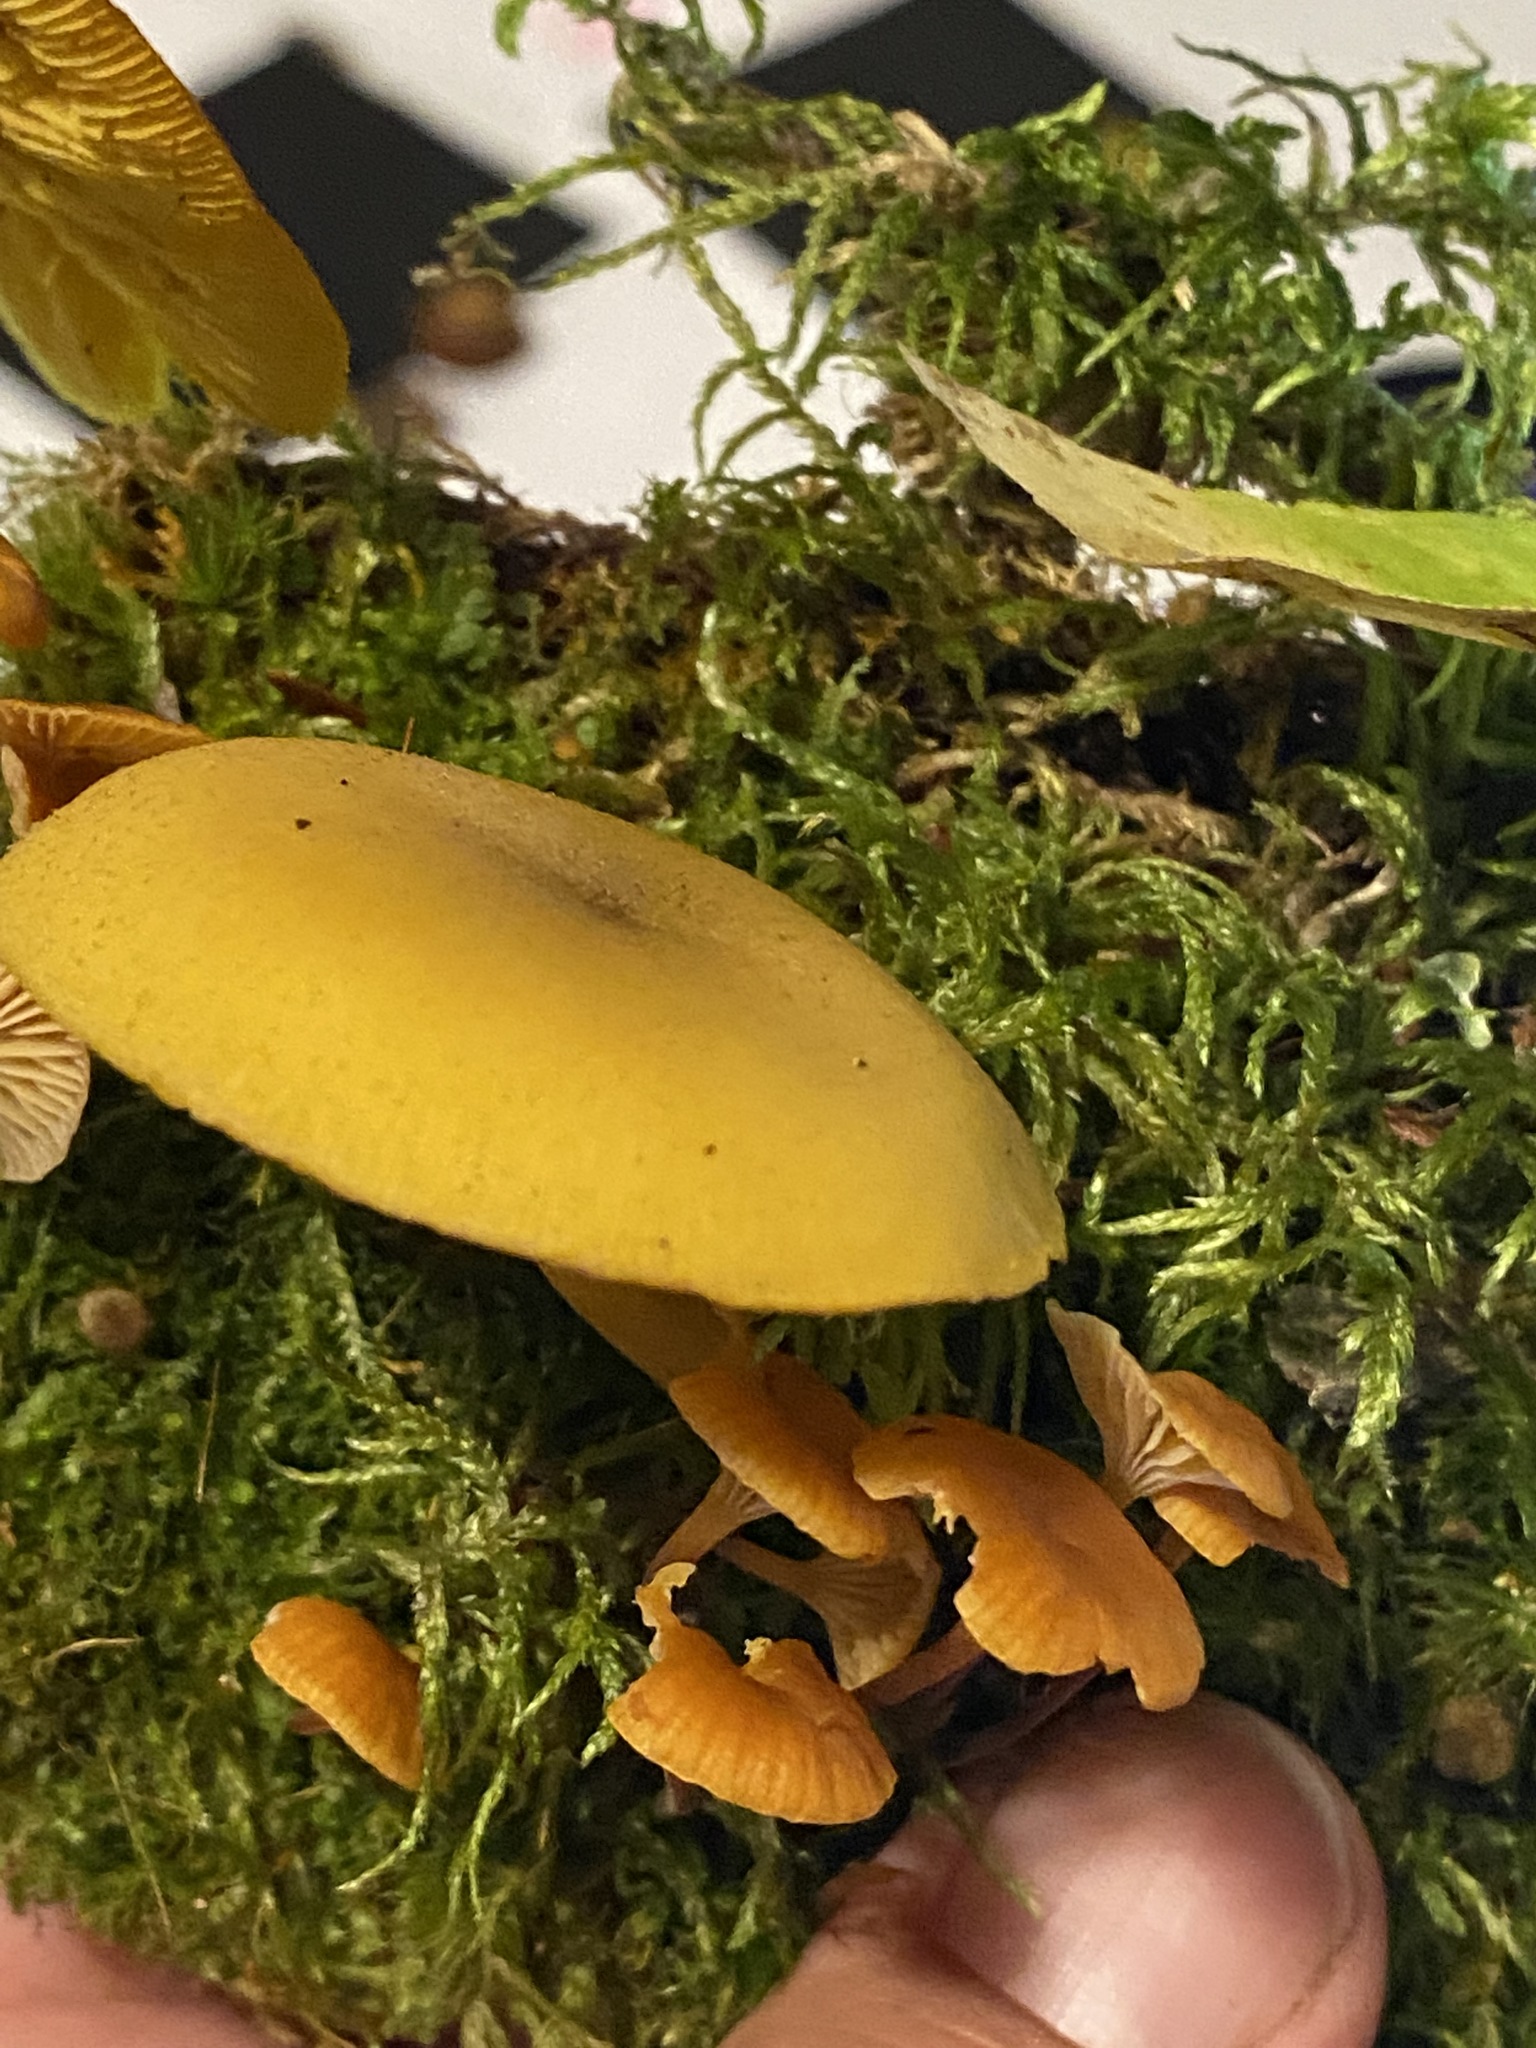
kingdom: Fungi
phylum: Basidiomycota
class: Agaricomycetes
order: Agaricales
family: Tricholomataceae
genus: Tricholomopsis
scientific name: Tricholomopsis decora
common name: Prunes and custard
